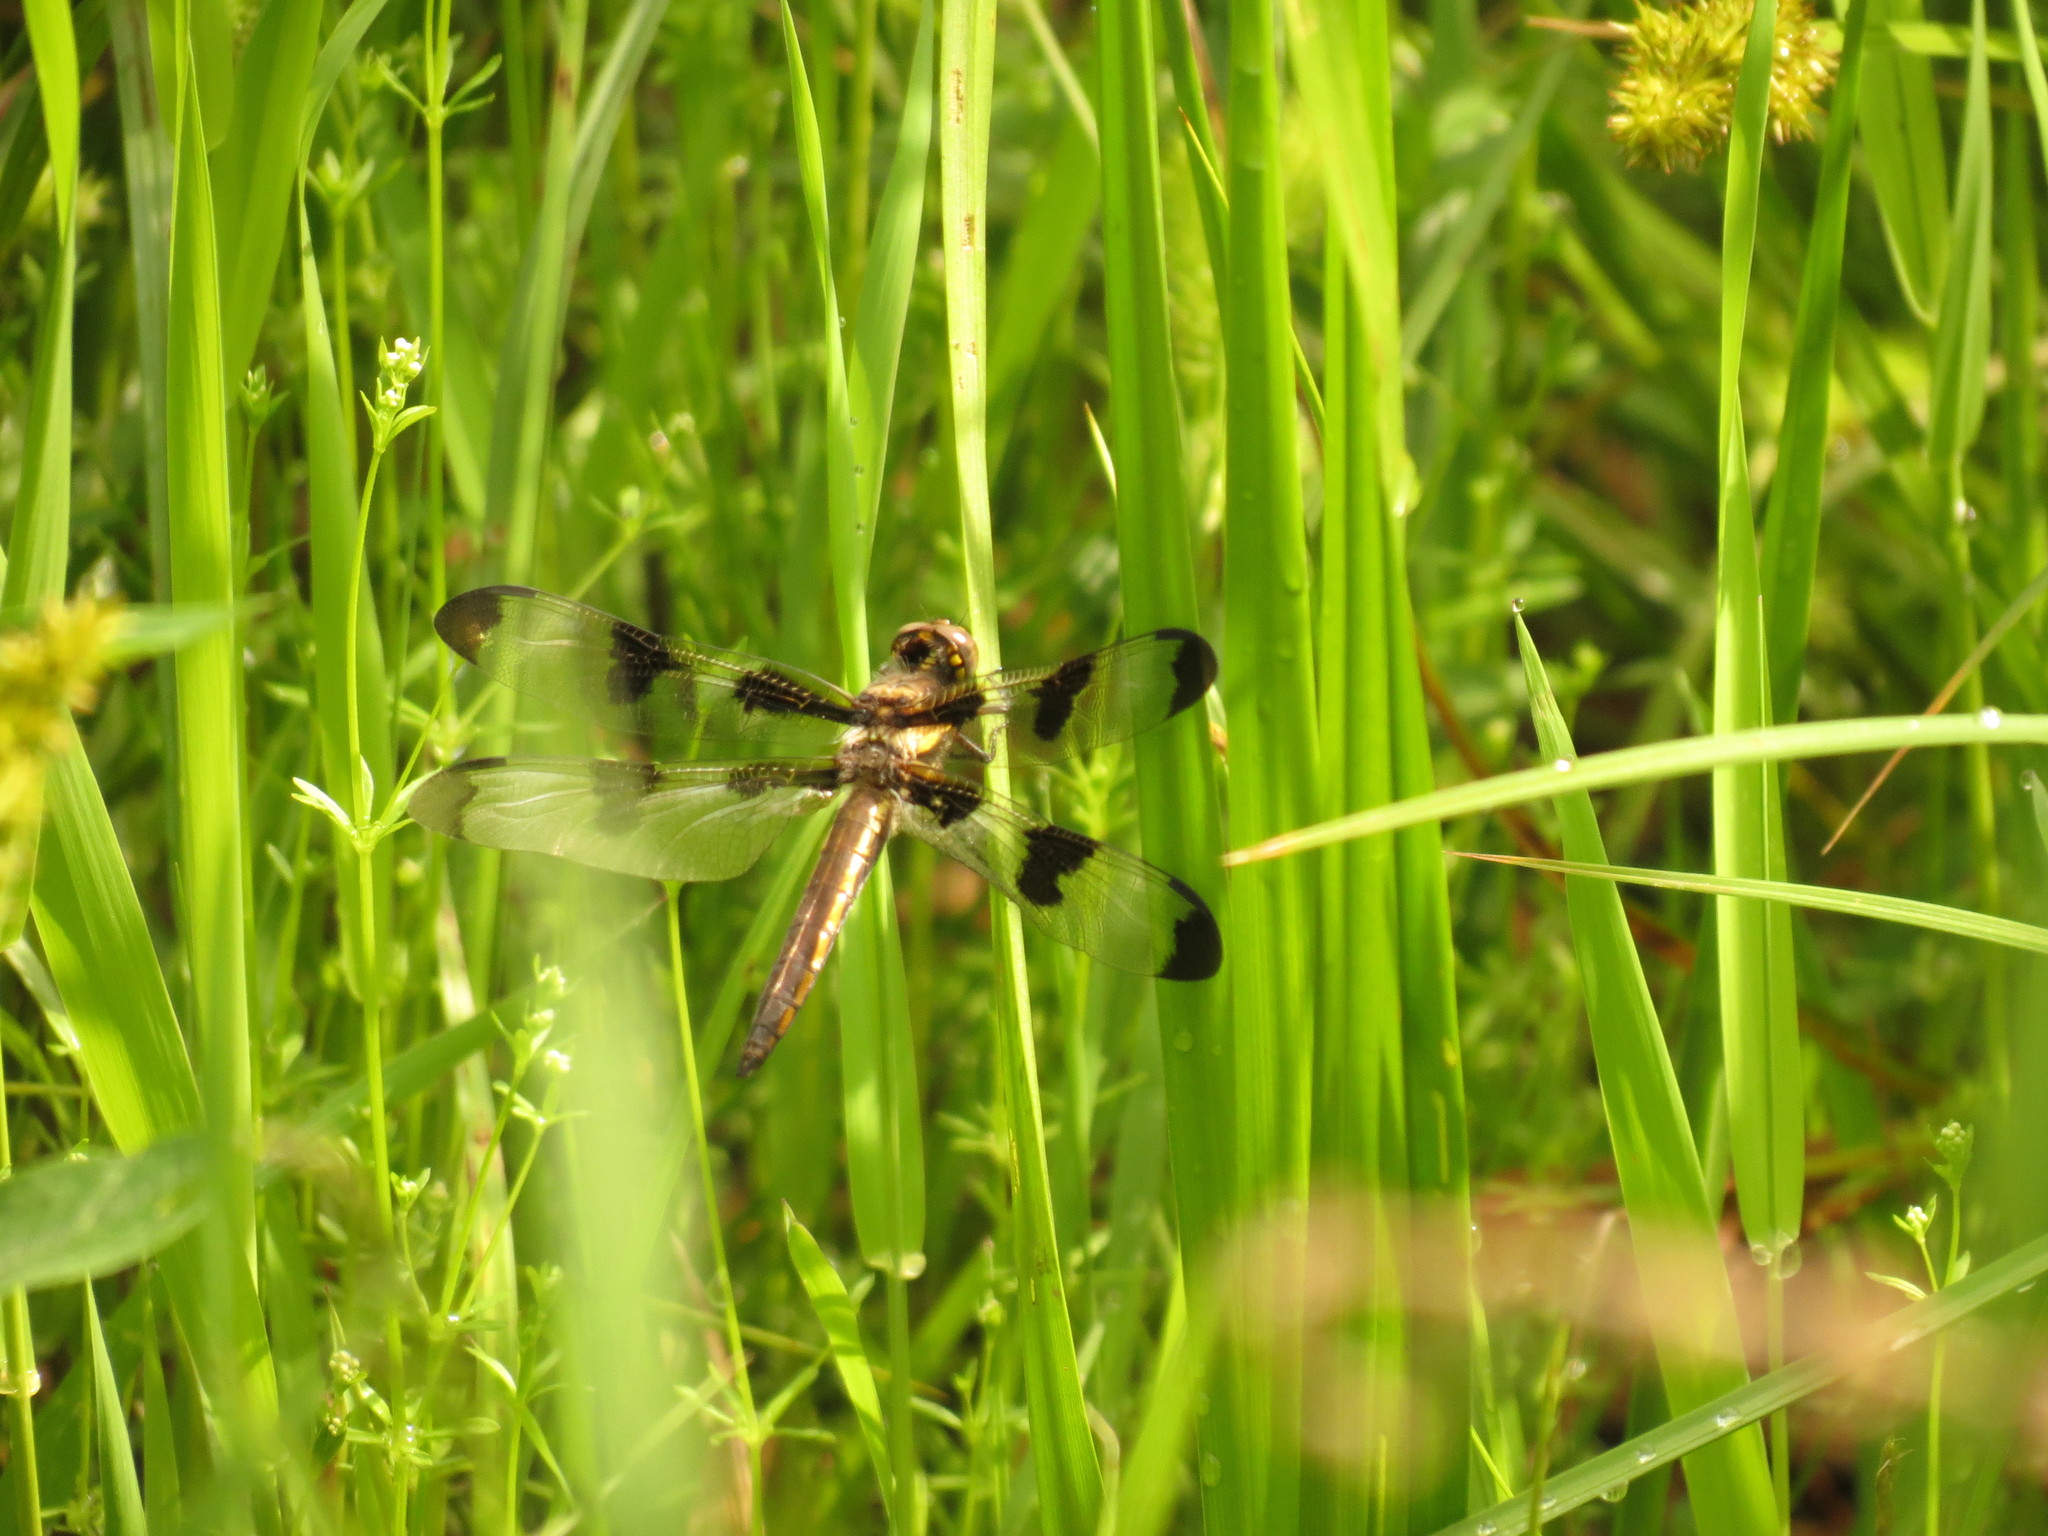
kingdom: Animalia
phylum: Arthropoda
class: Insecta
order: Odonata
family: Libellulidae
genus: Libellula
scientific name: Libellula pulchella
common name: Twelve-spotted skimmer
